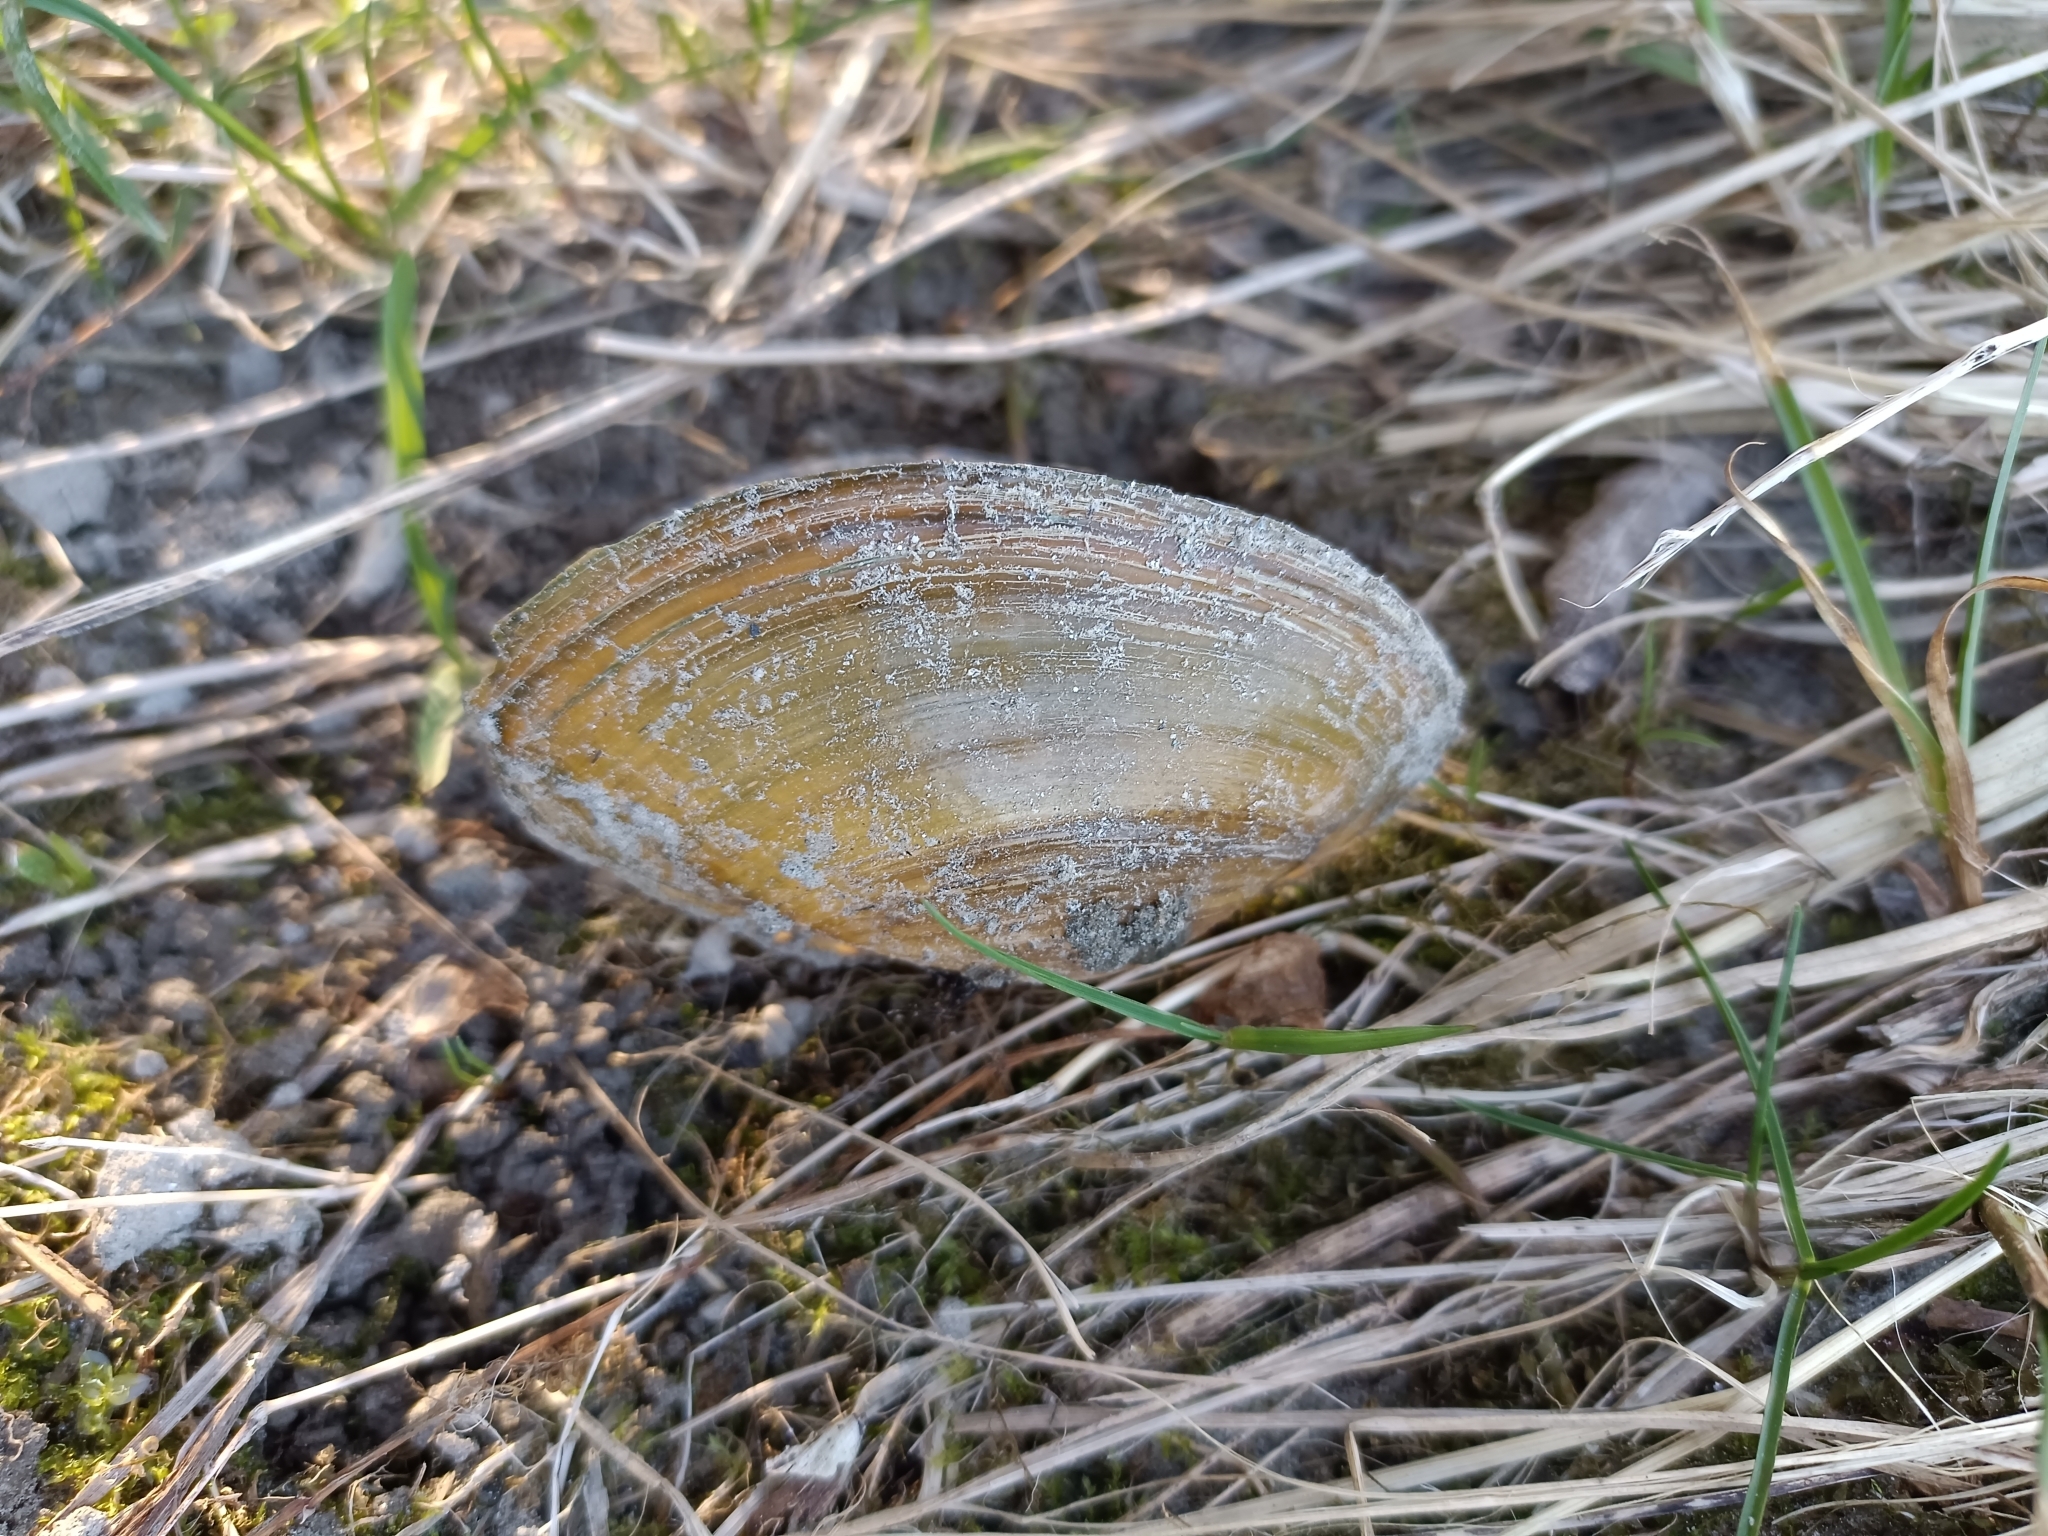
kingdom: Animalia
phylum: Mollusca
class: Bivalvia
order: Unionida
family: Unionidae
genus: Sinanodonta
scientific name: Sinanodonta woodiana
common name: Chinese pond mussel
